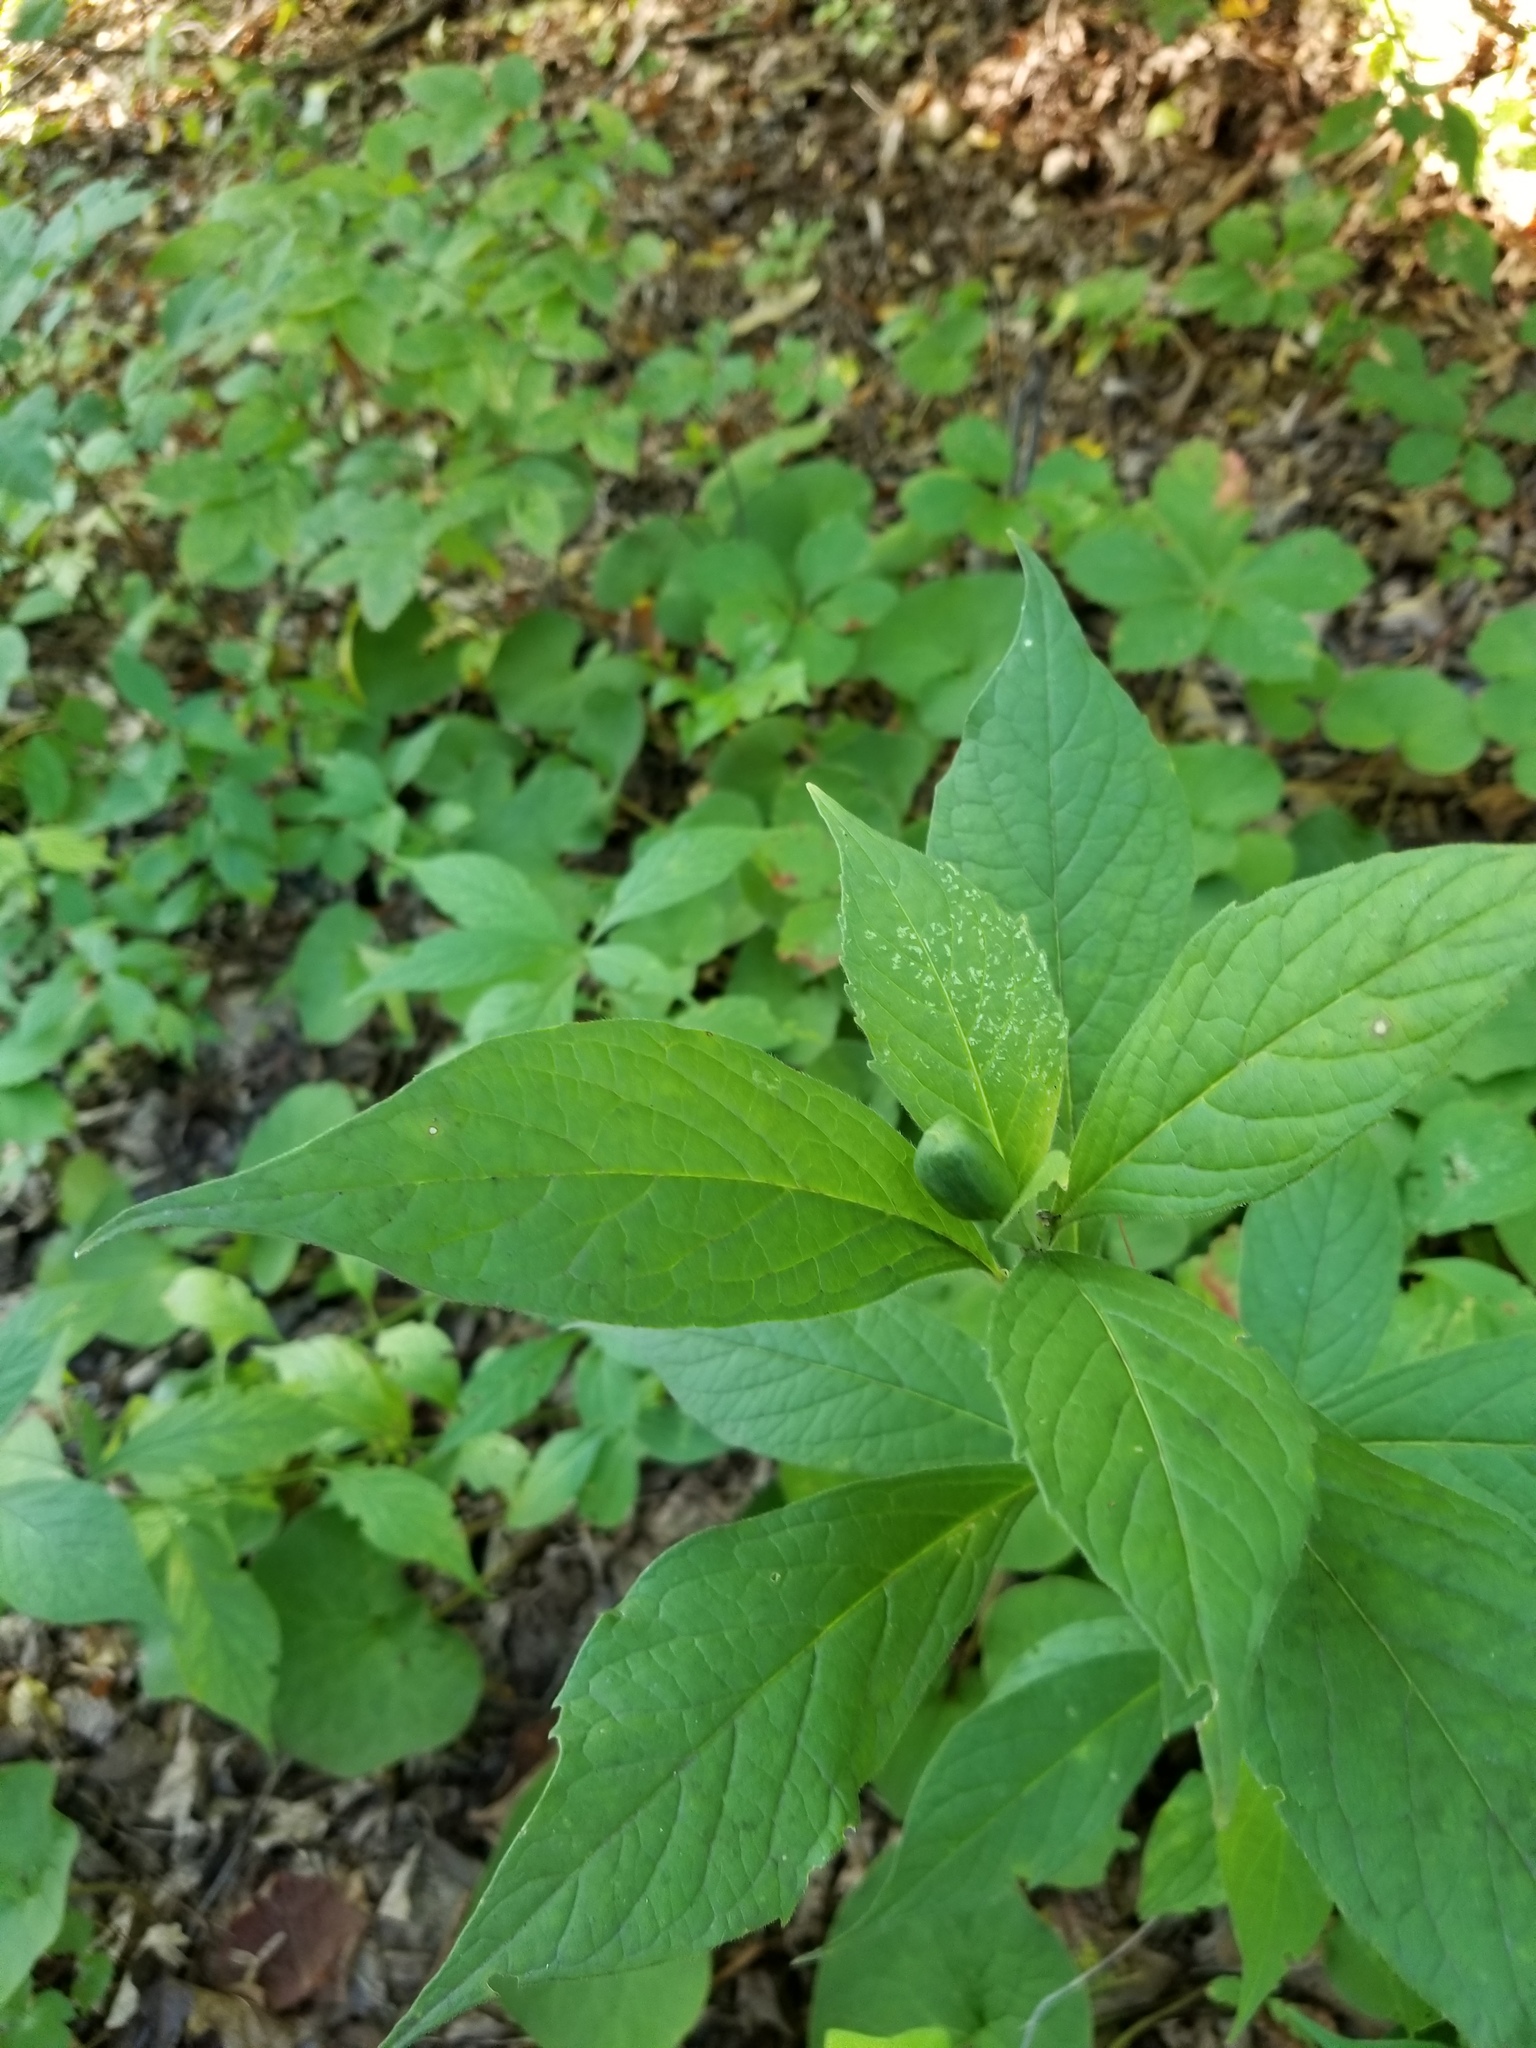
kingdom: Plantae
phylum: Tracheophyta
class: Magnoliopsida
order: Malpighiales
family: Violaceae
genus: Cubelium
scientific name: Cubelium concolor
